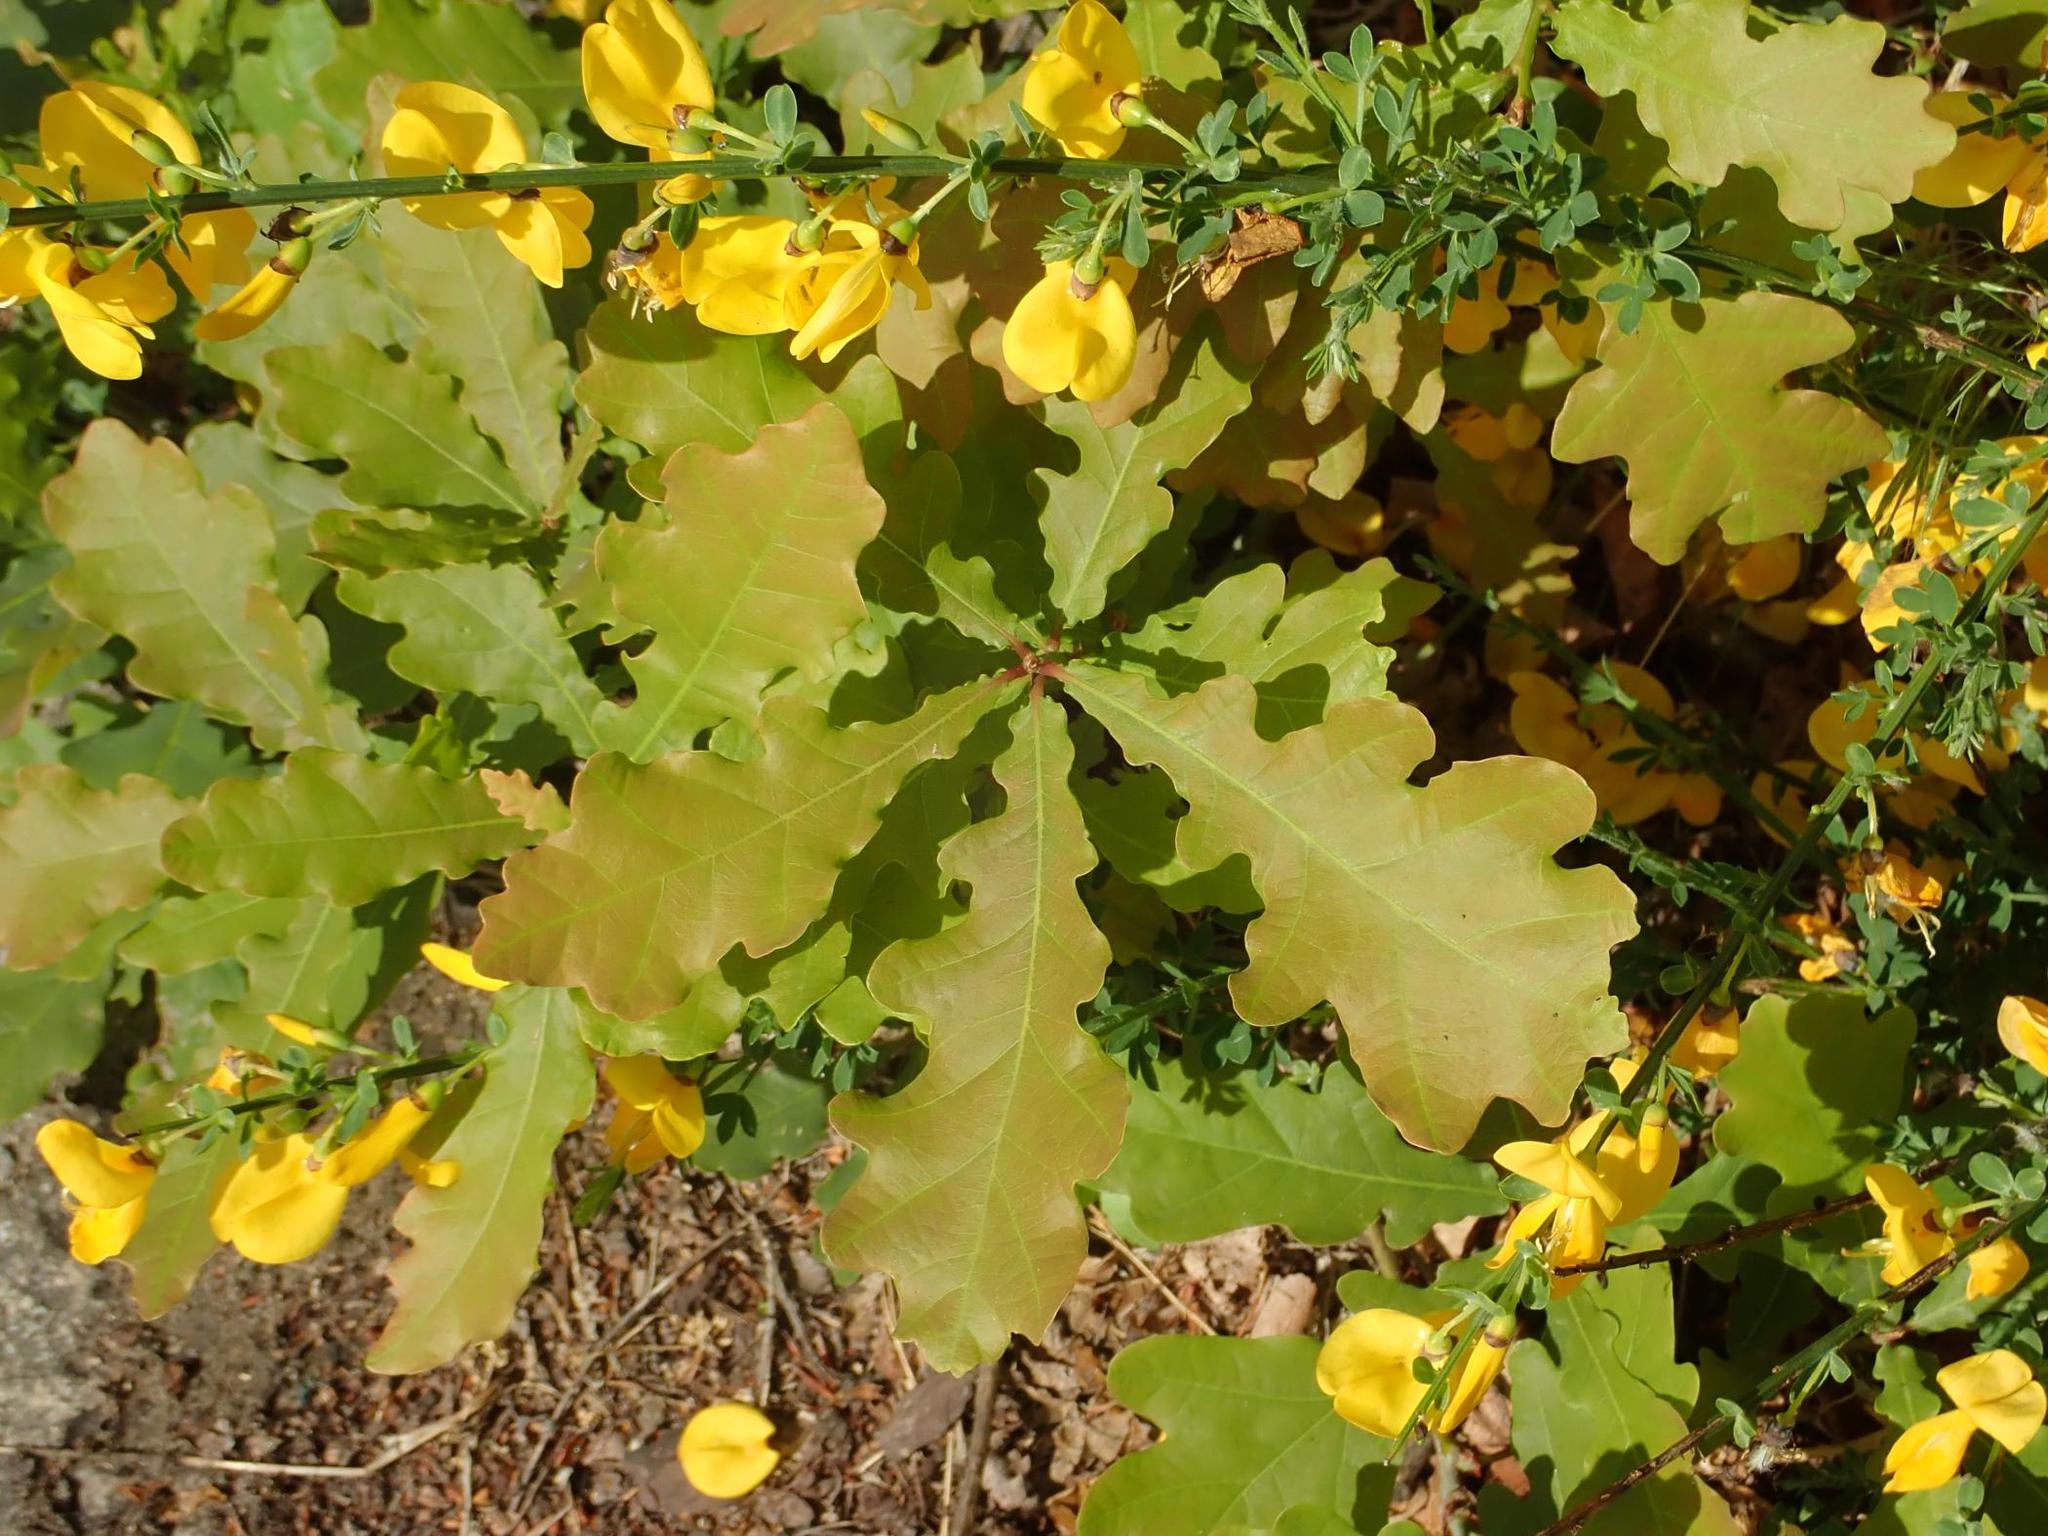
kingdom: Plantae
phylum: Tracheophyta
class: Magnoliopsida
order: Fagales
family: Fagaceae
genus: Quercus
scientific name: Quercus robur
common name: Pedunculate oak
